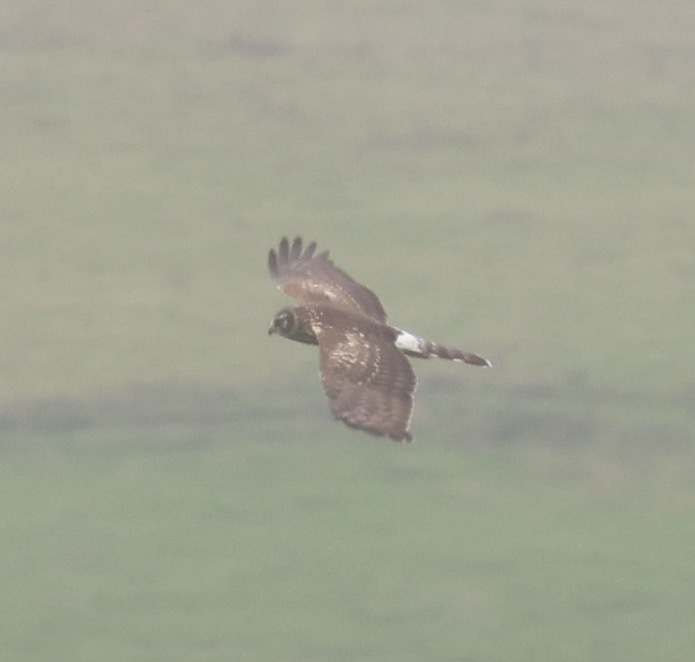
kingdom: Animalia
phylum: Chordata
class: Aves
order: Accipitriformes
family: Accipitridae
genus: Circus
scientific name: Circus cyaneus
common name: Hen harrier
